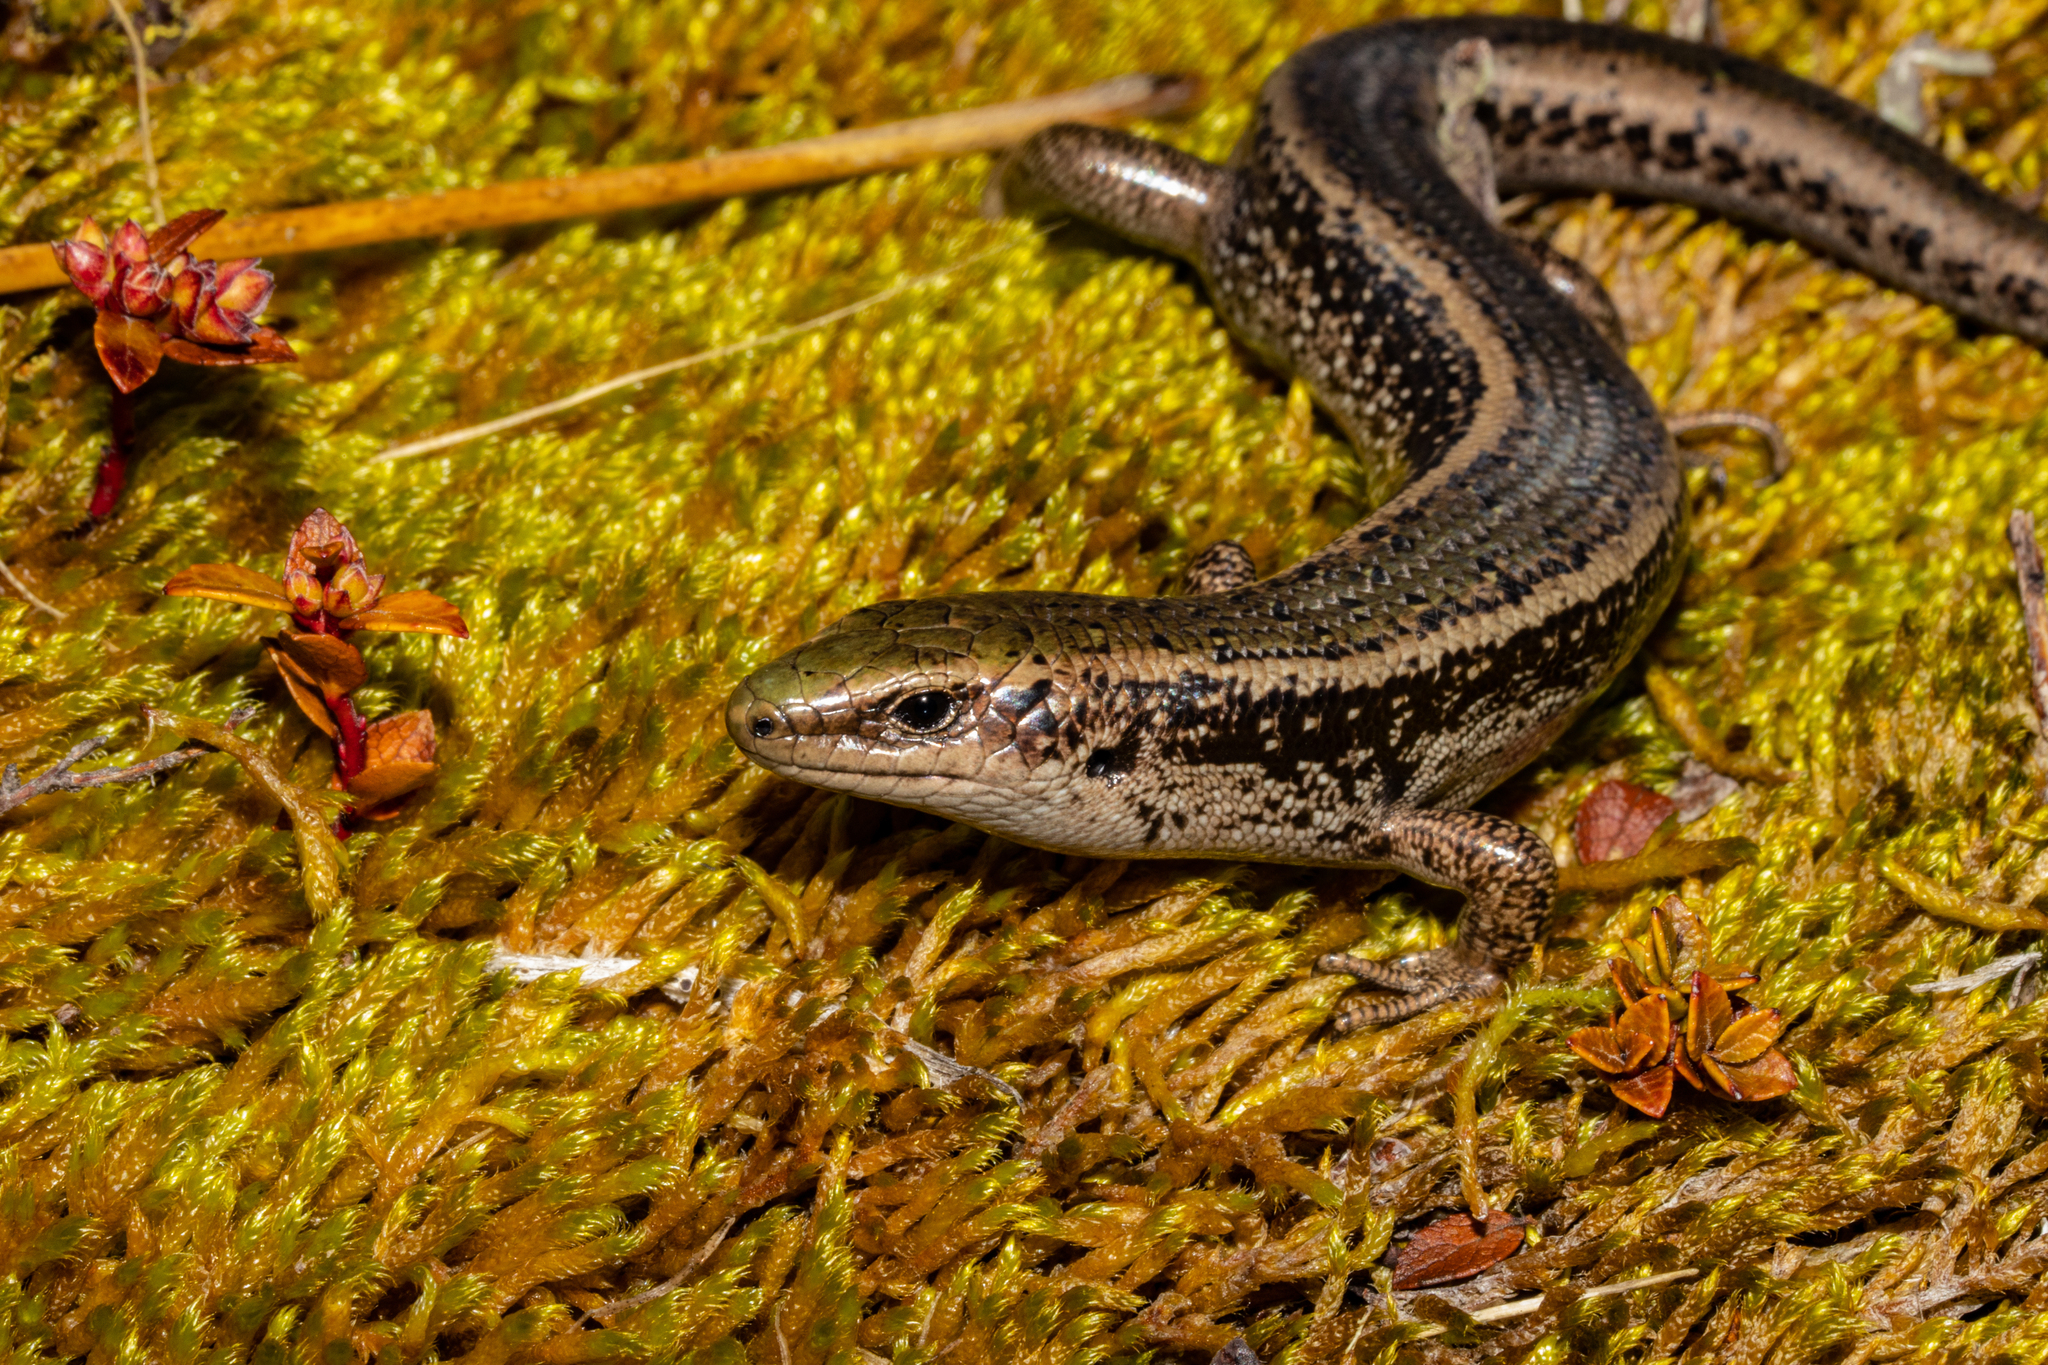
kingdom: Animalia
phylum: Chordata
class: Squamata
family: Scincidae
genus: Oligosoma
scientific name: Oligosoma chloronoton
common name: Green skink
